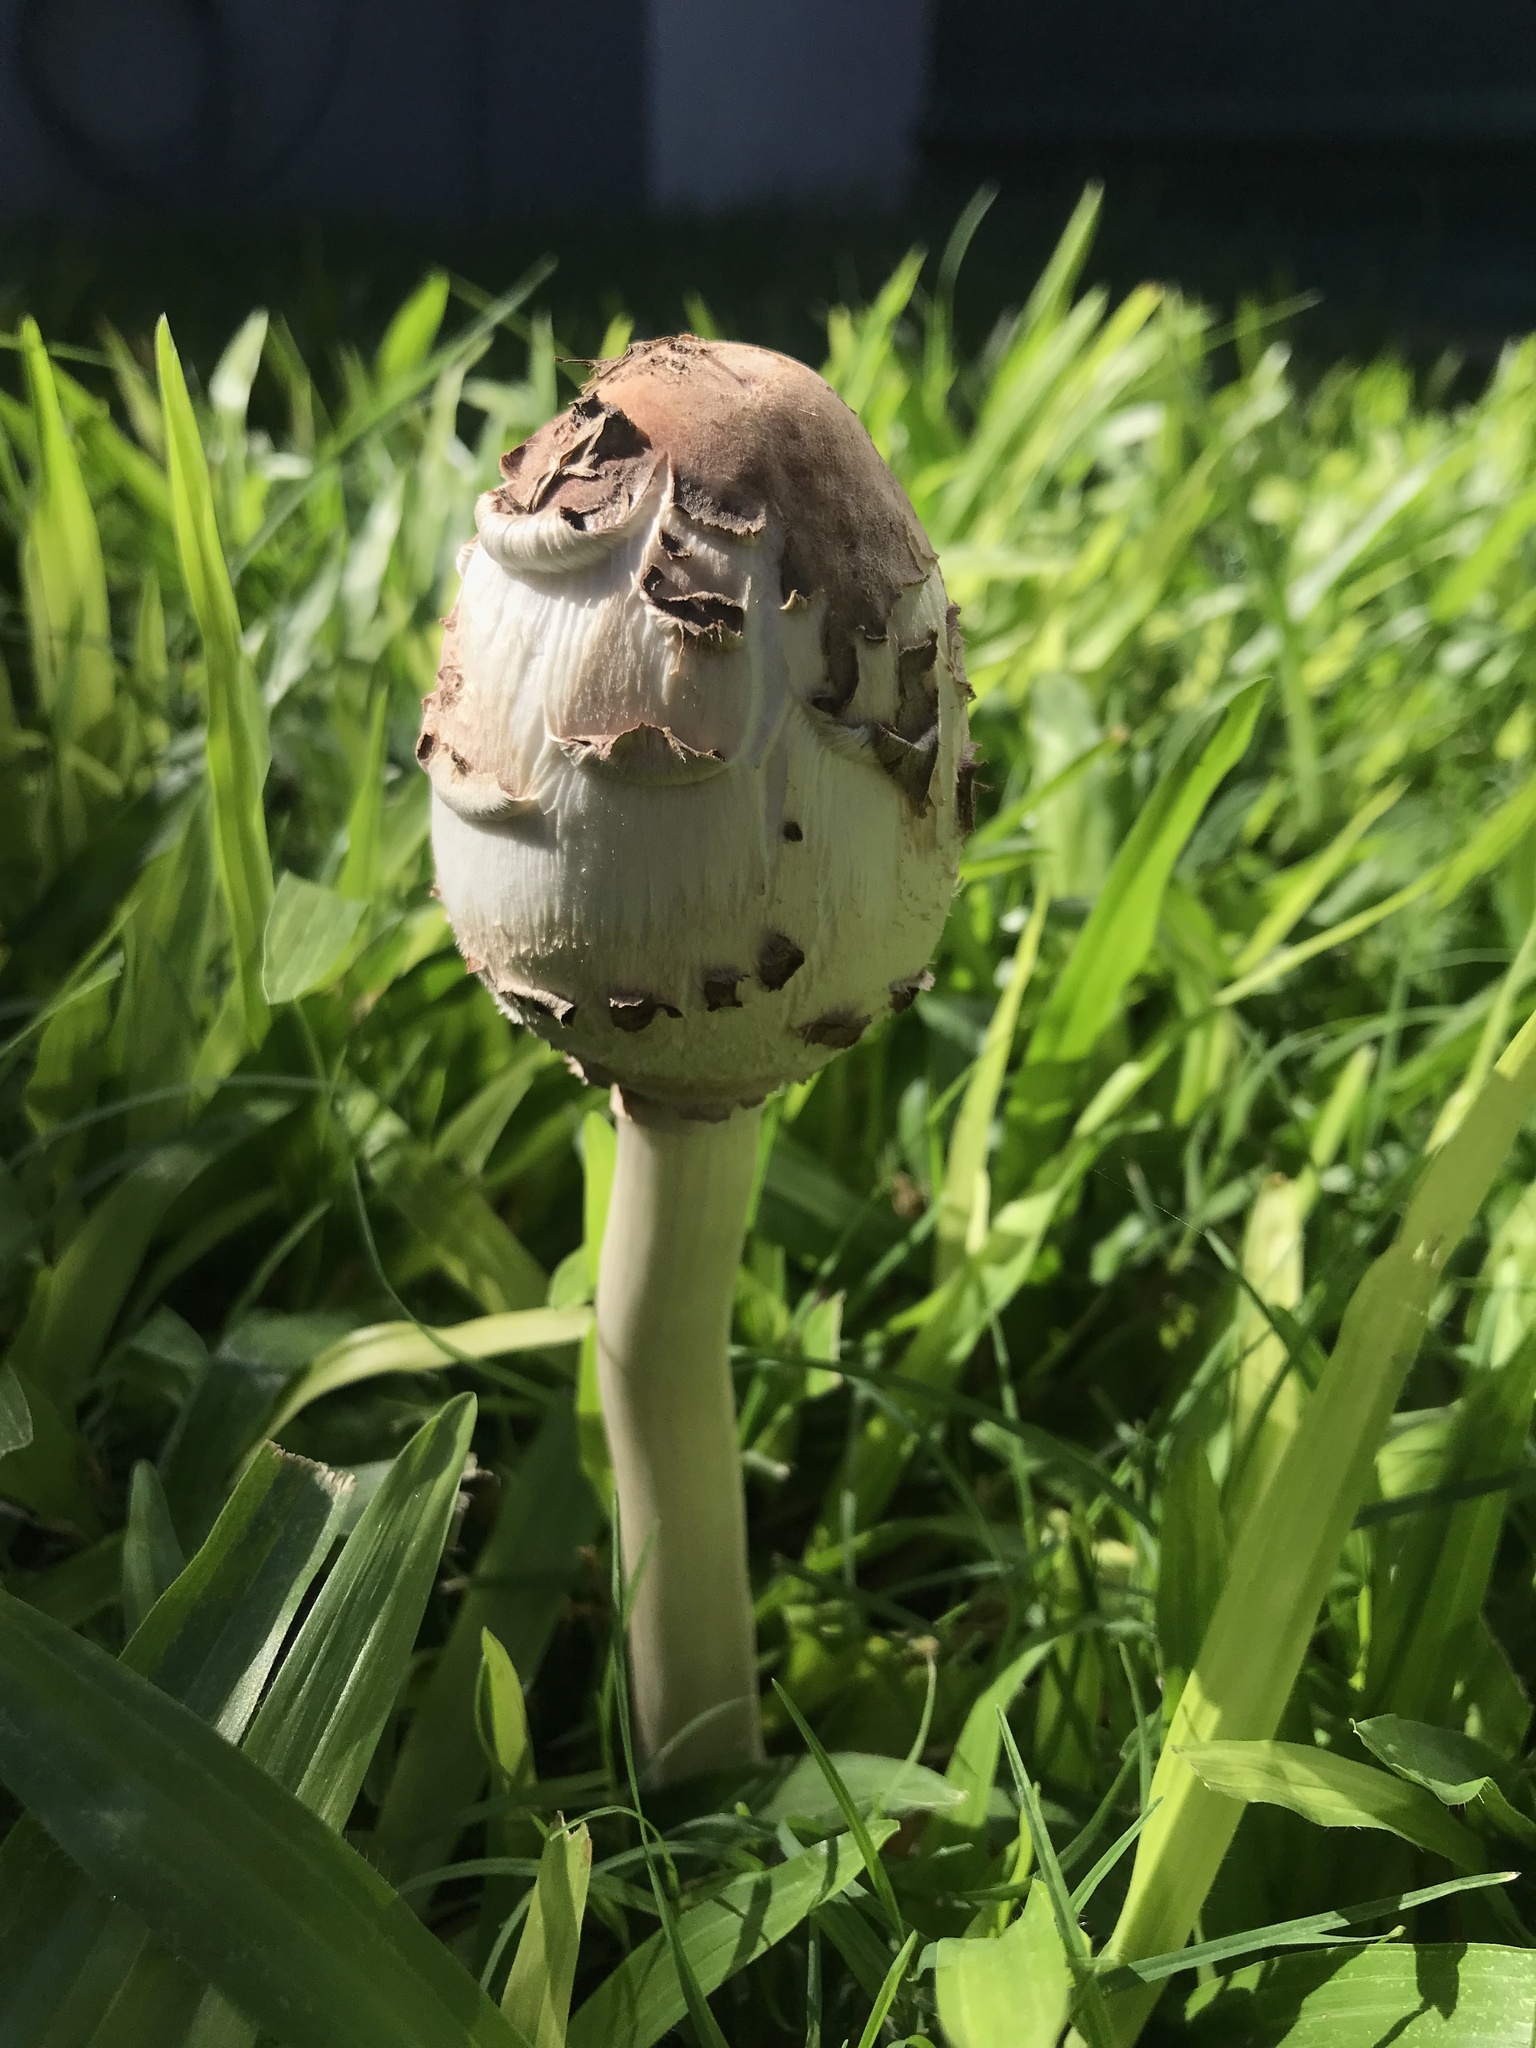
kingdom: Fungi
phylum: Basidiomycota
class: Agaricomycetes
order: Agaricales
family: Agaricaceae
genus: Chlorophyllum
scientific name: Chlorophyllum molybdites
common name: False parasol
